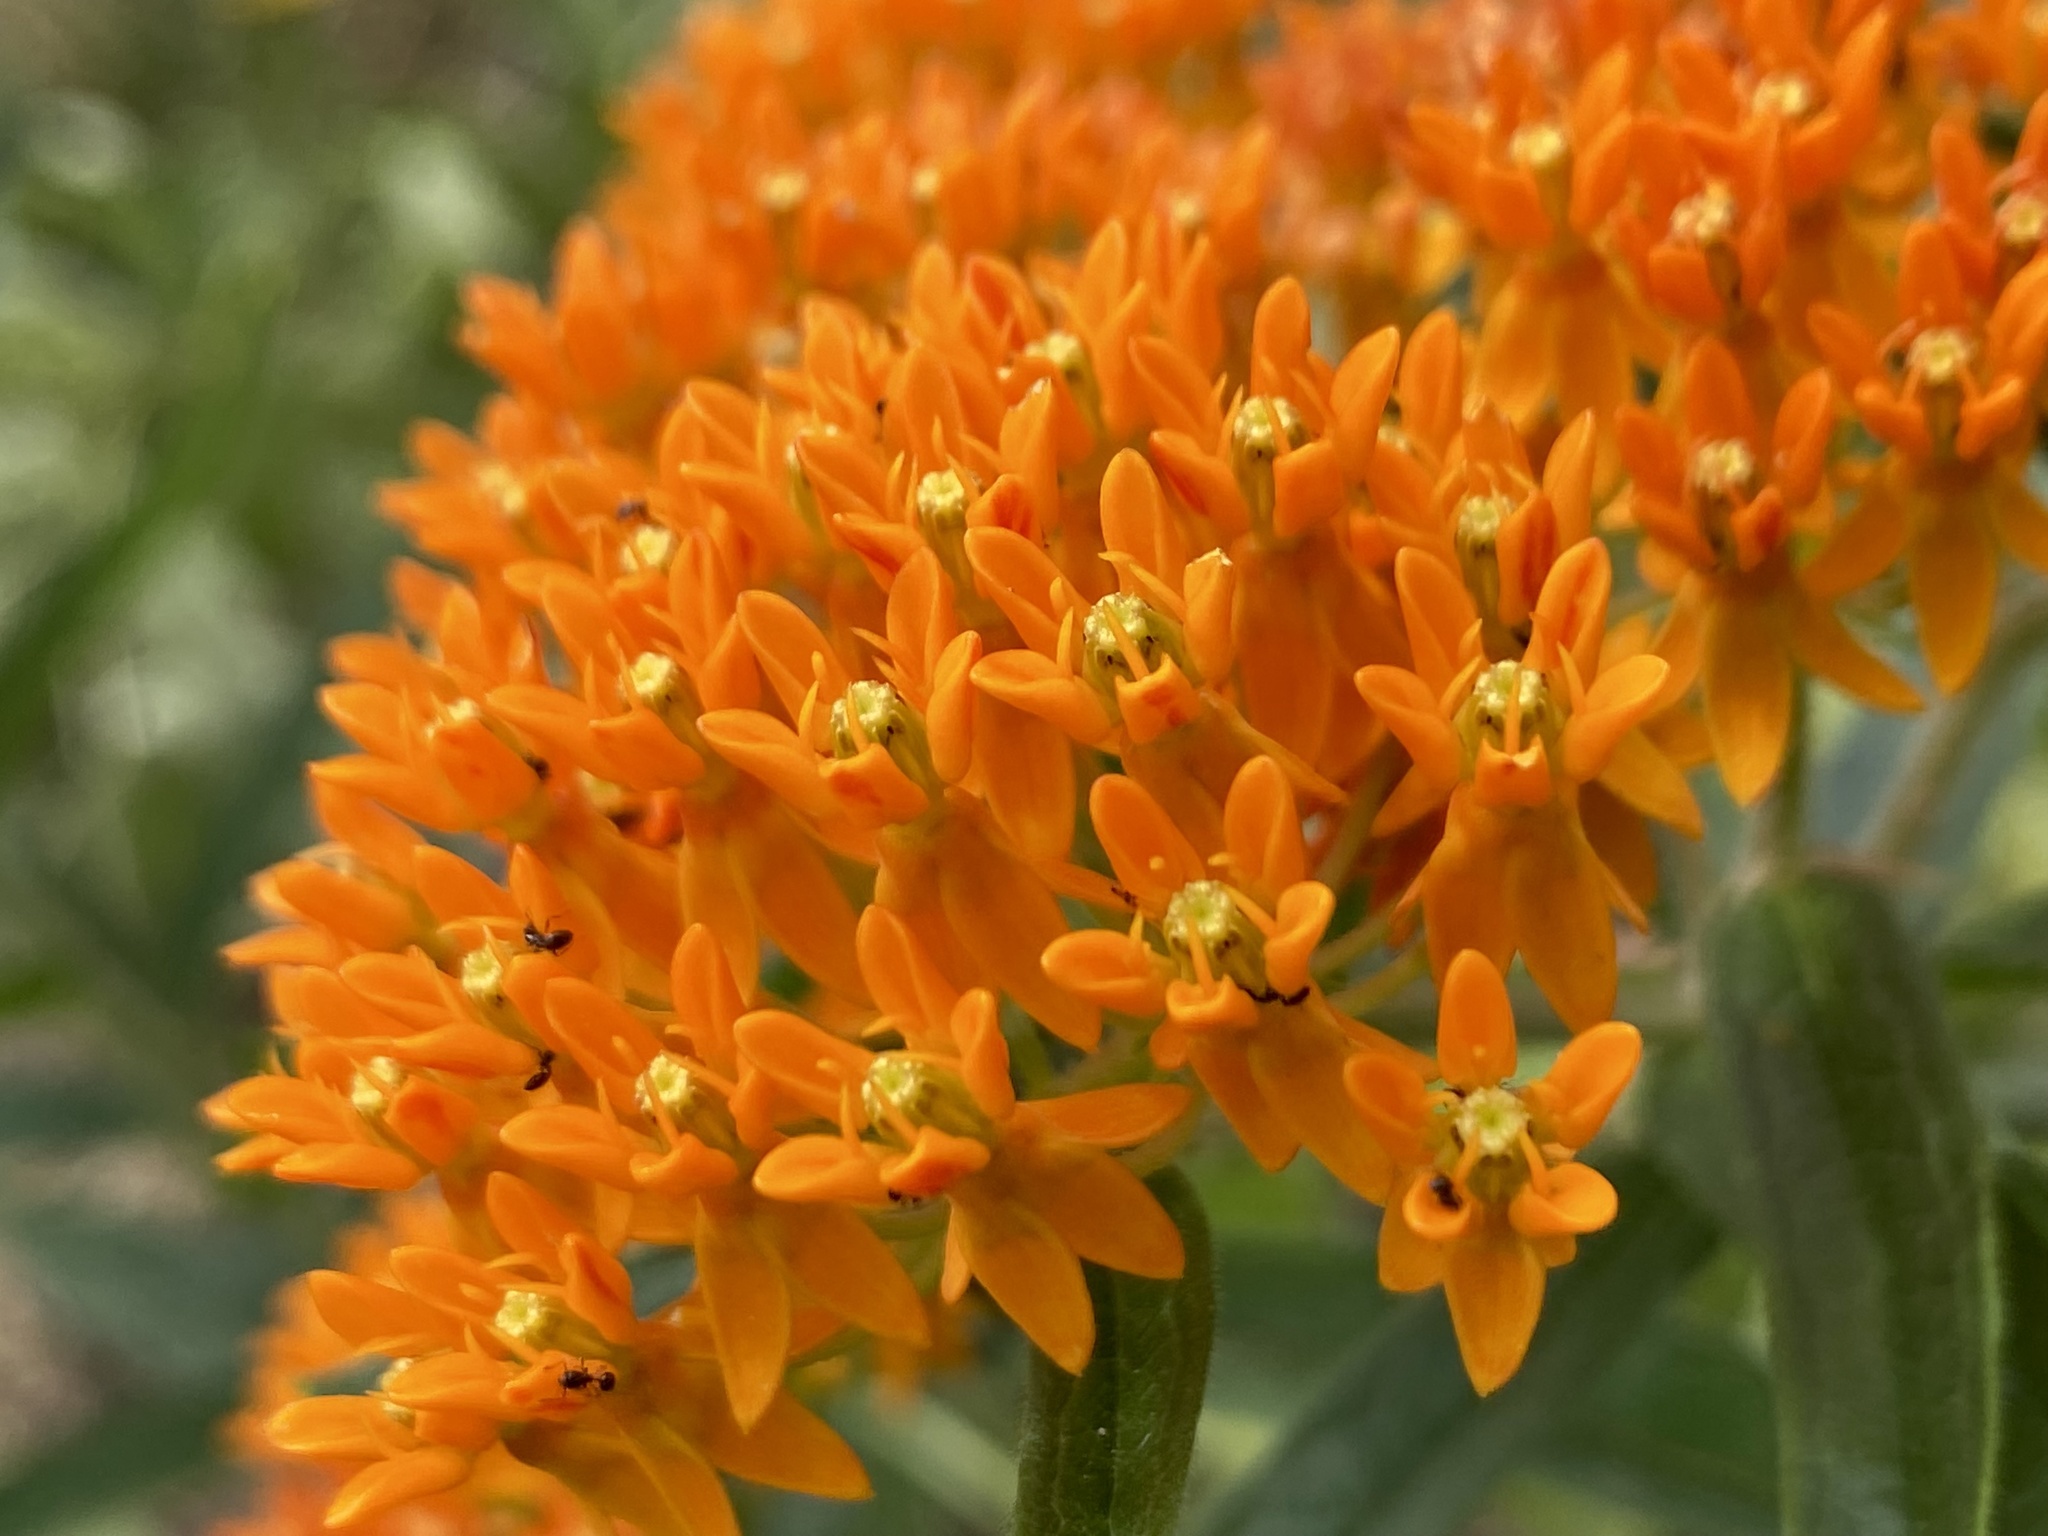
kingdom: Plantae
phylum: Tracheophyta
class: Magnoliopsida
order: Gentianales
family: Apocynaceae
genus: Asclepias
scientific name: Asclepias tuberosa
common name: Butterfly milkweed
